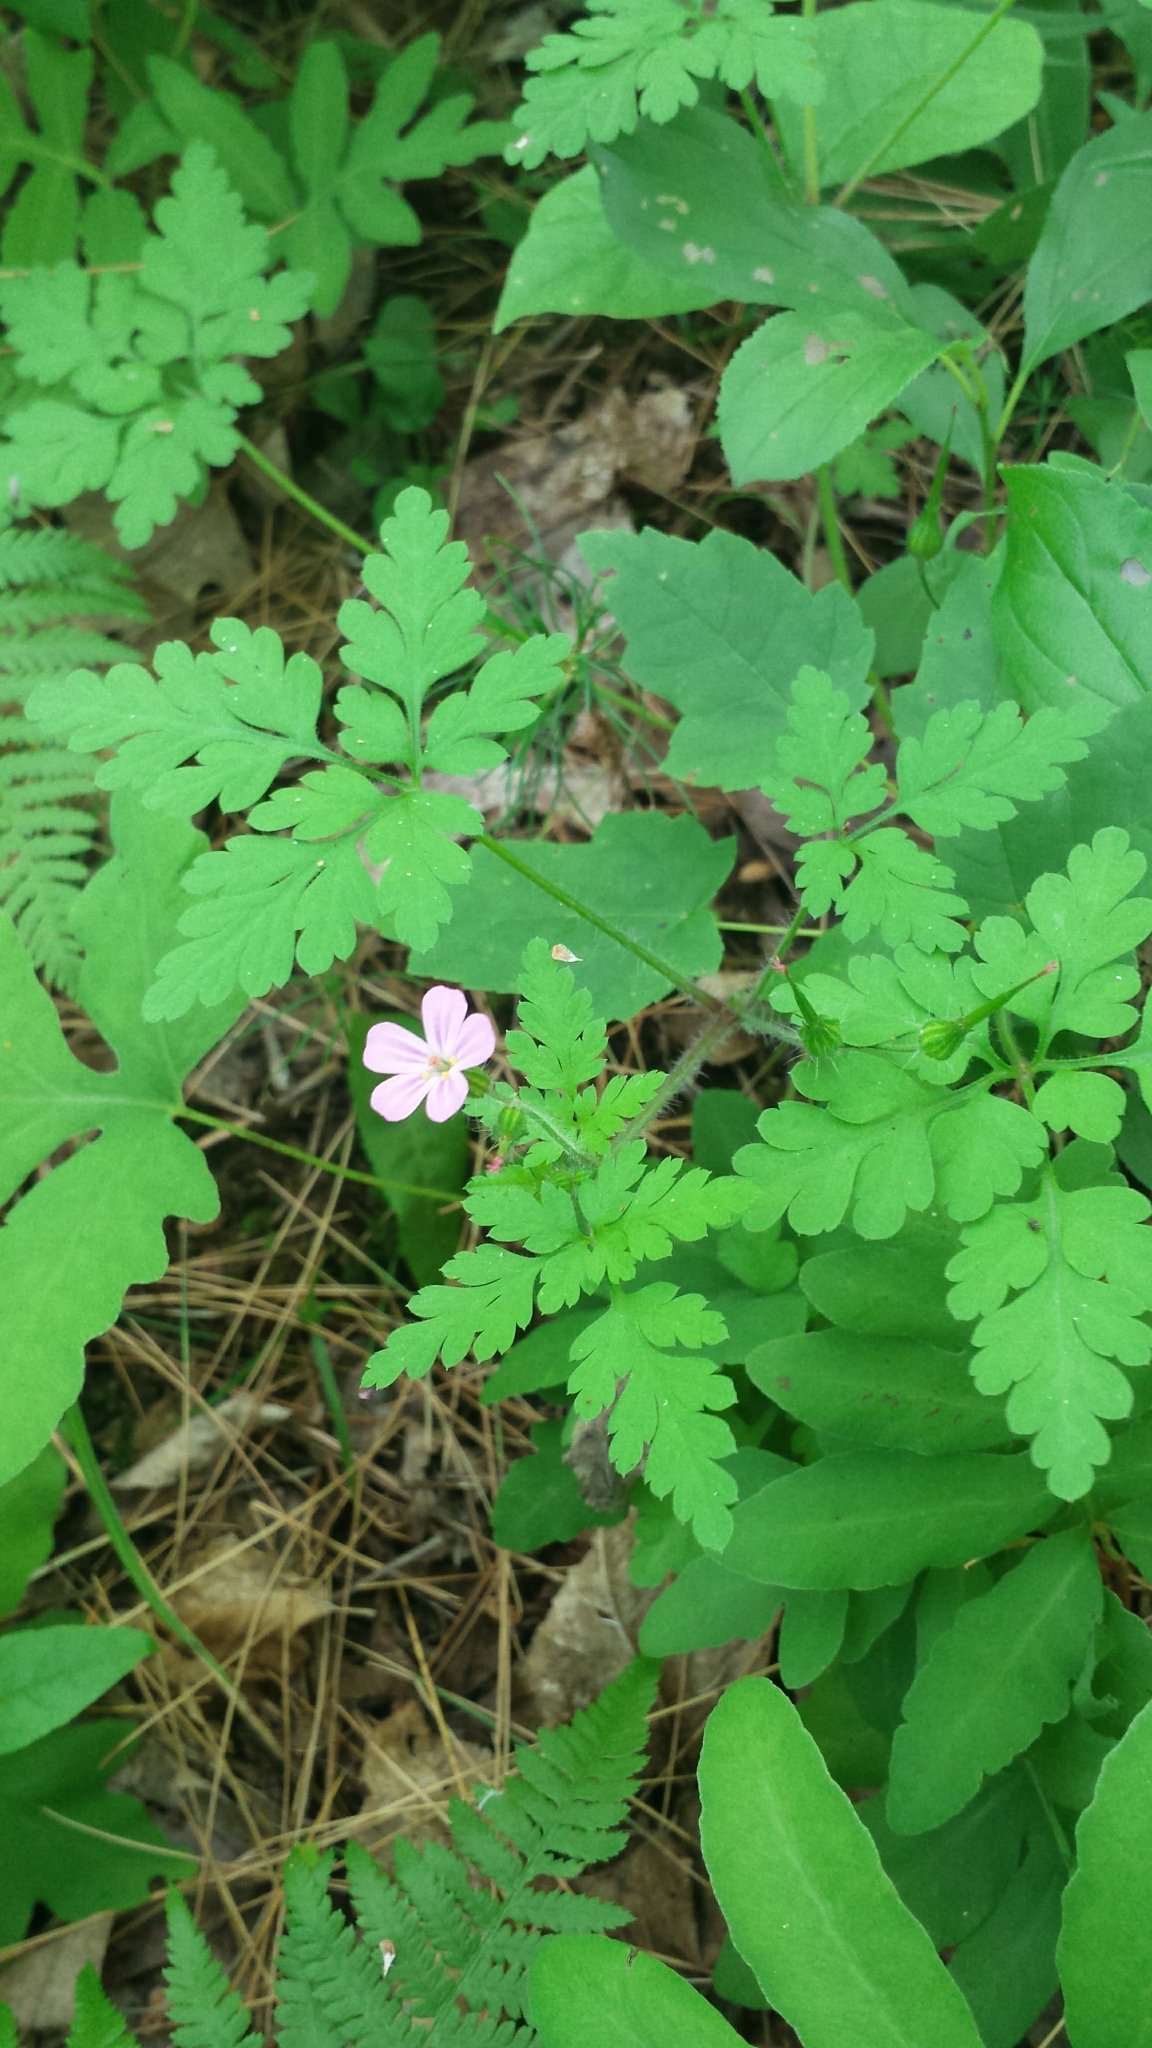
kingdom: Plantae
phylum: Tracheophyta
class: Magnoliopsida
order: Geraniales
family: Geraniaceae
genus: Geranium
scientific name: Geranium robertianum
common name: Herb-robert
